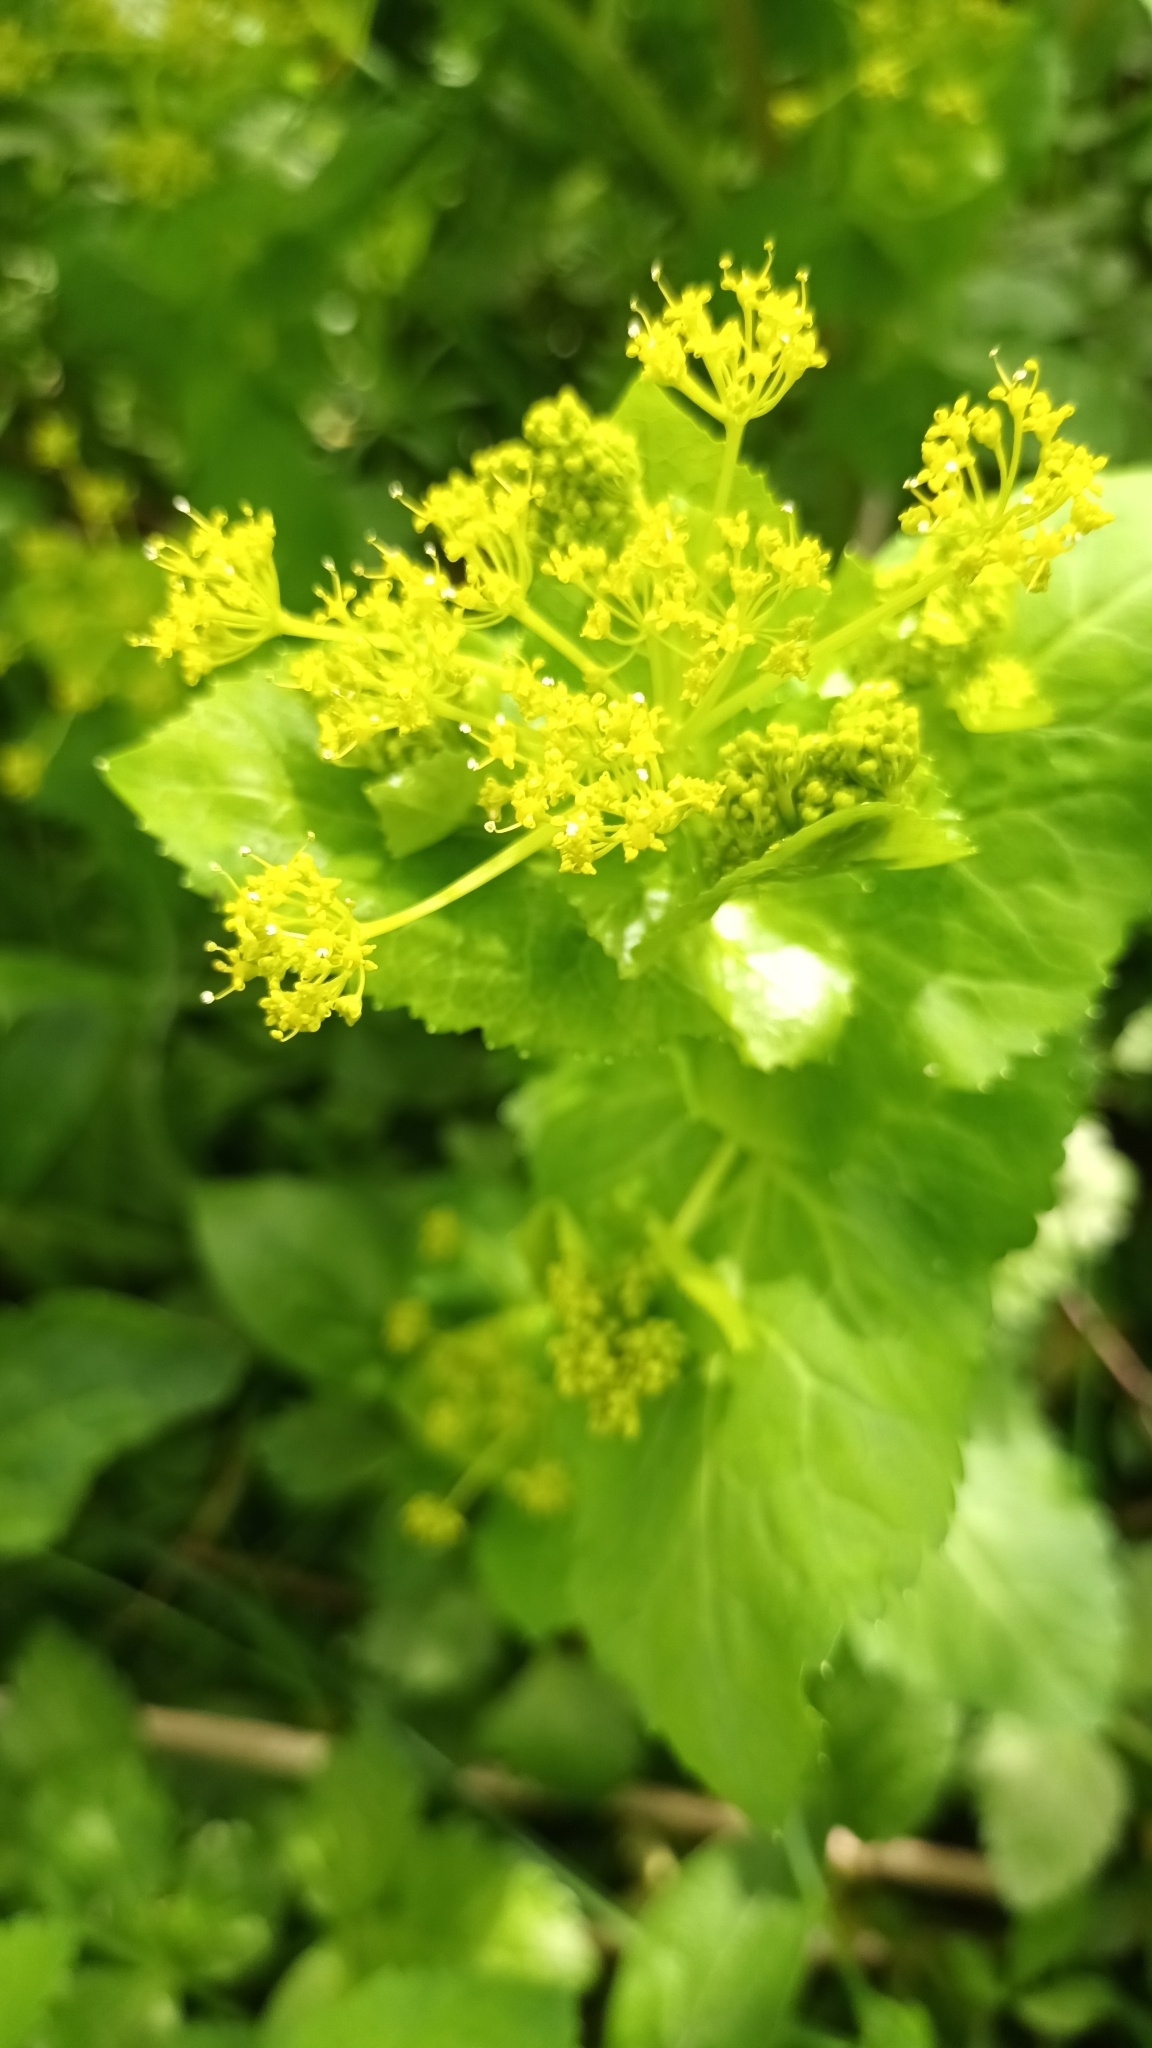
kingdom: Plantae
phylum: Tracheophyta
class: Magnoliopsida
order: Apiales
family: Apiaceae
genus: Smyrnium
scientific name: Smyrnium perfoliatum
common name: Perfoliate alexanders
